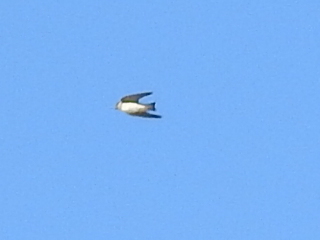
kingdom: Animalia
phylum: Chordata
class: Aves
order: Passeriformes
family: Hirundinidae
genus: Petrochelidon
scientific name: Petrochelidon nigricans
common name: Tree martin
